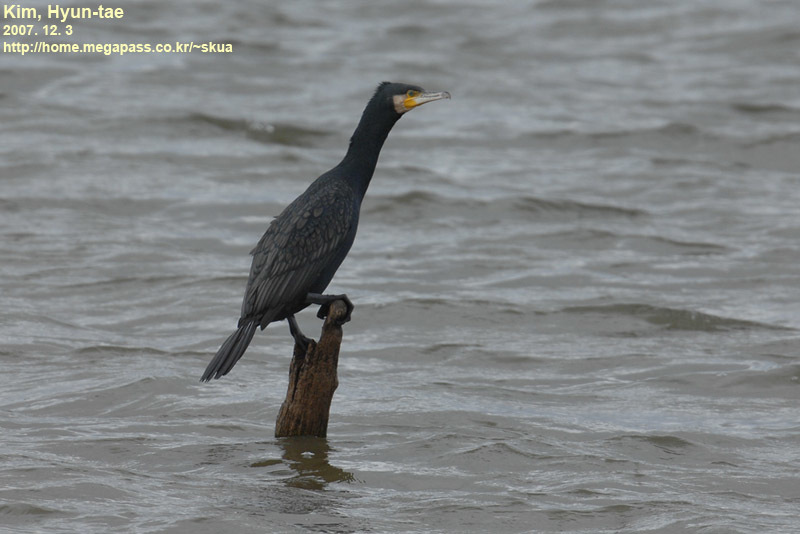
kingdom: Animalia
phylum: Chordata
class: Aves
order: Suliformes
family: Phalacrocoracidae
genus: Phalacrocorax
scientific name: Phalacrocorax carbo
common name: Great cormorant
